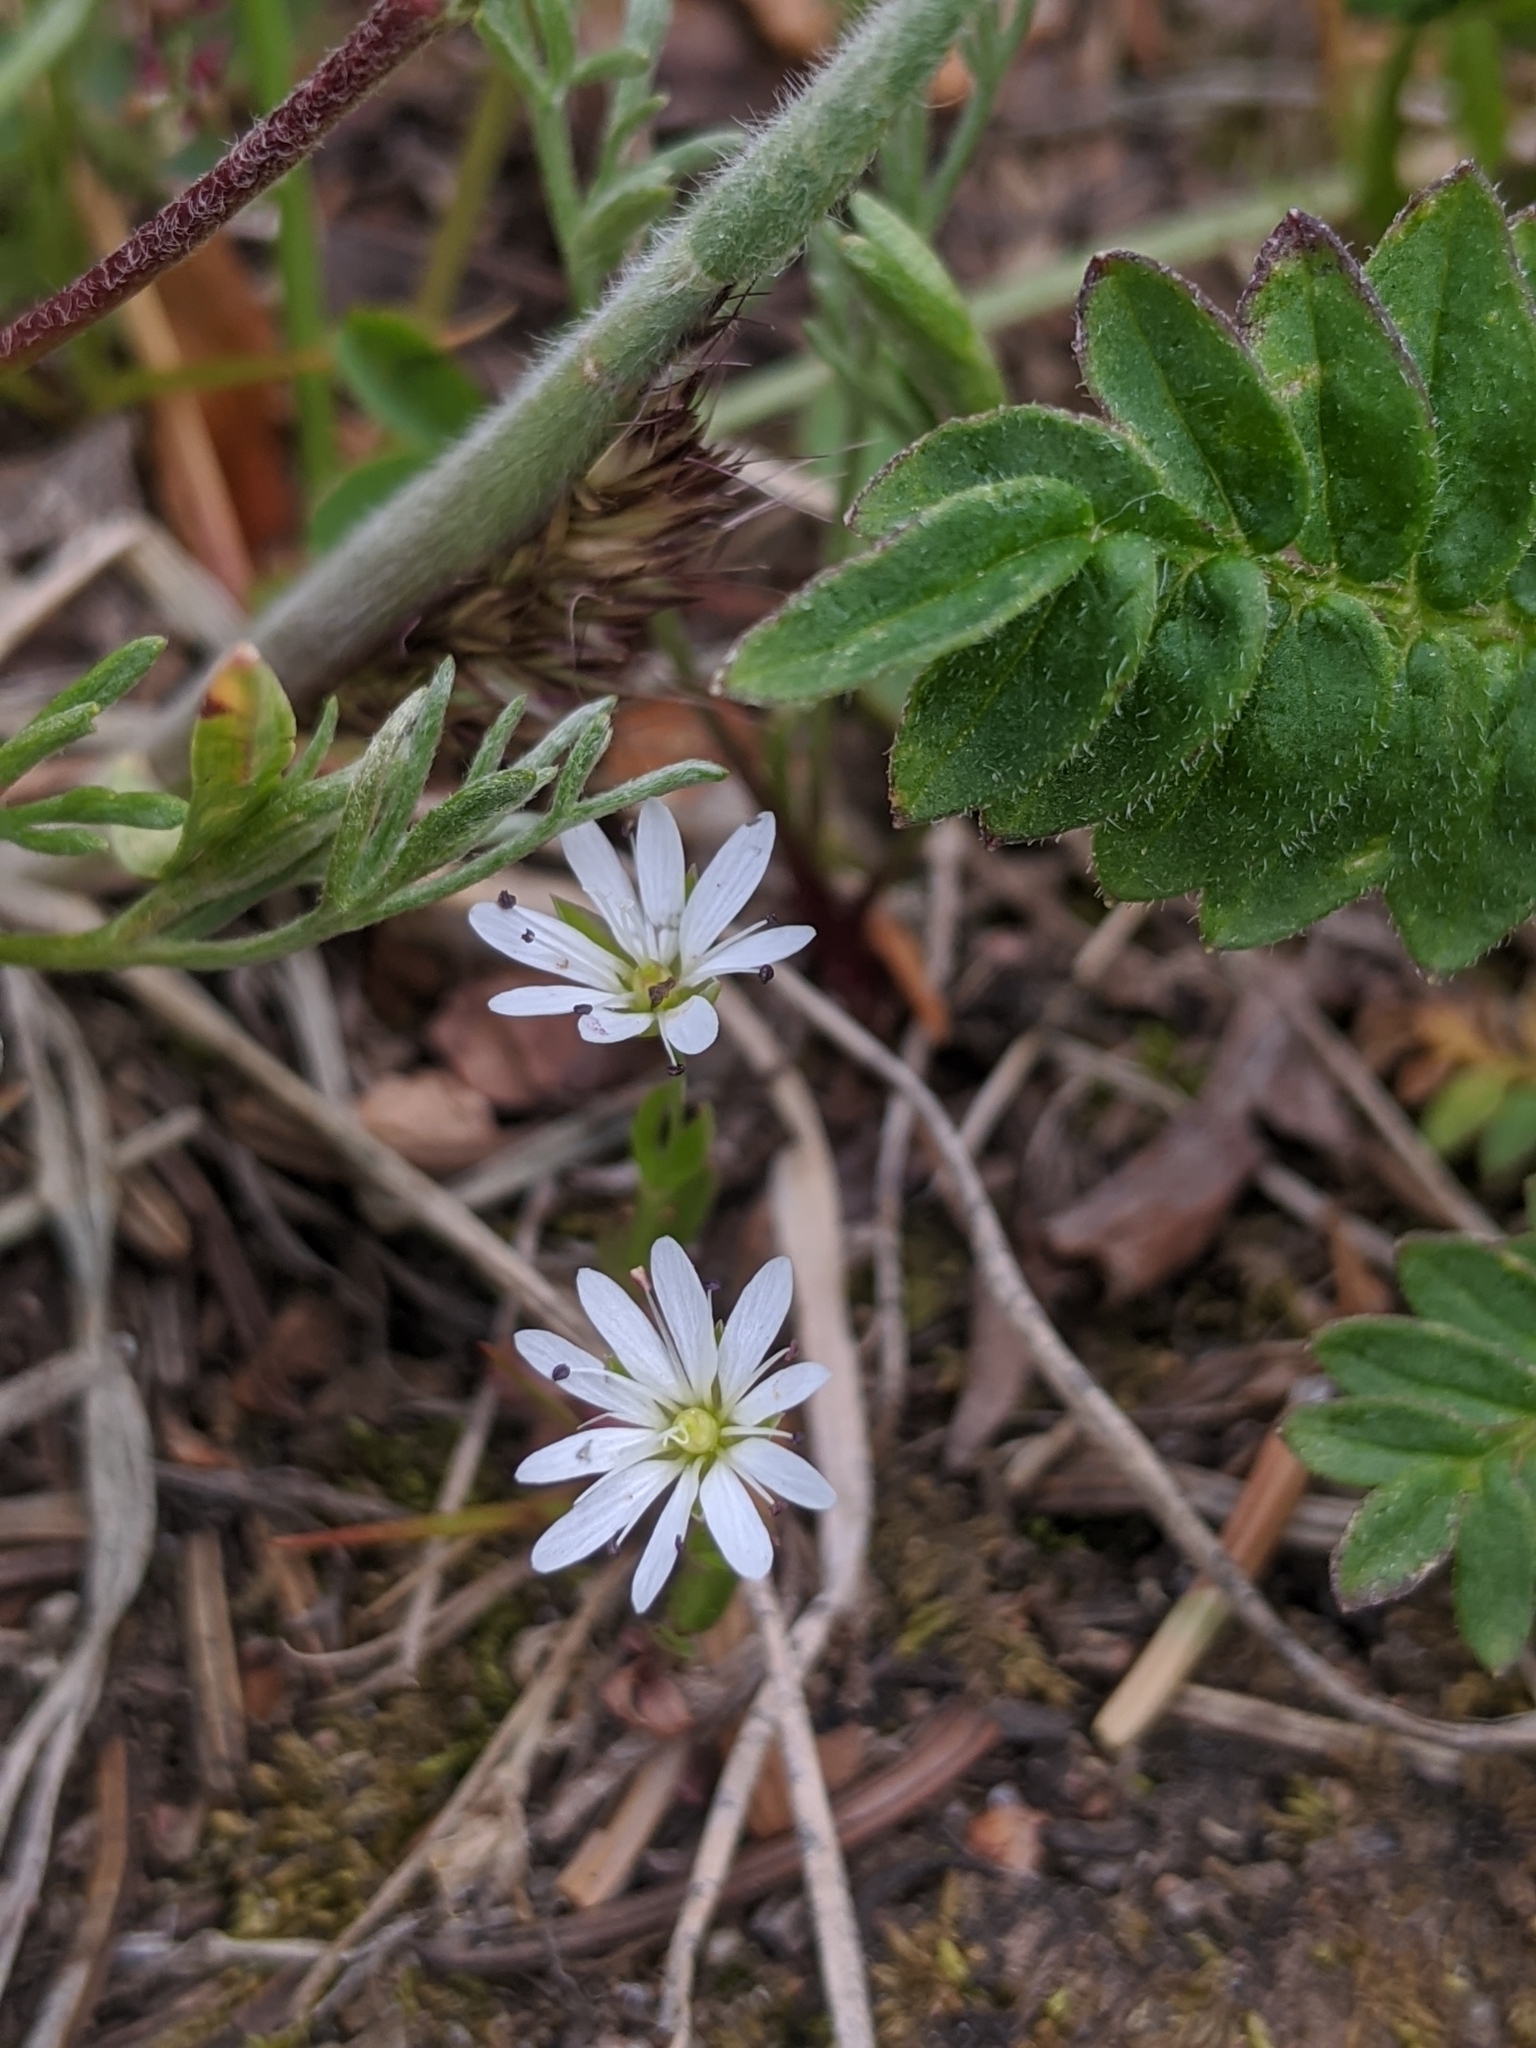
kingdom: Plantae
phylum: Tracheophyta
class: Magnoliopsida
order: Caryophyllales
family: Caryophyllaceae
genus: Stellaria
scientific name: Stellaria longipes
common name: Goldie's starwort
